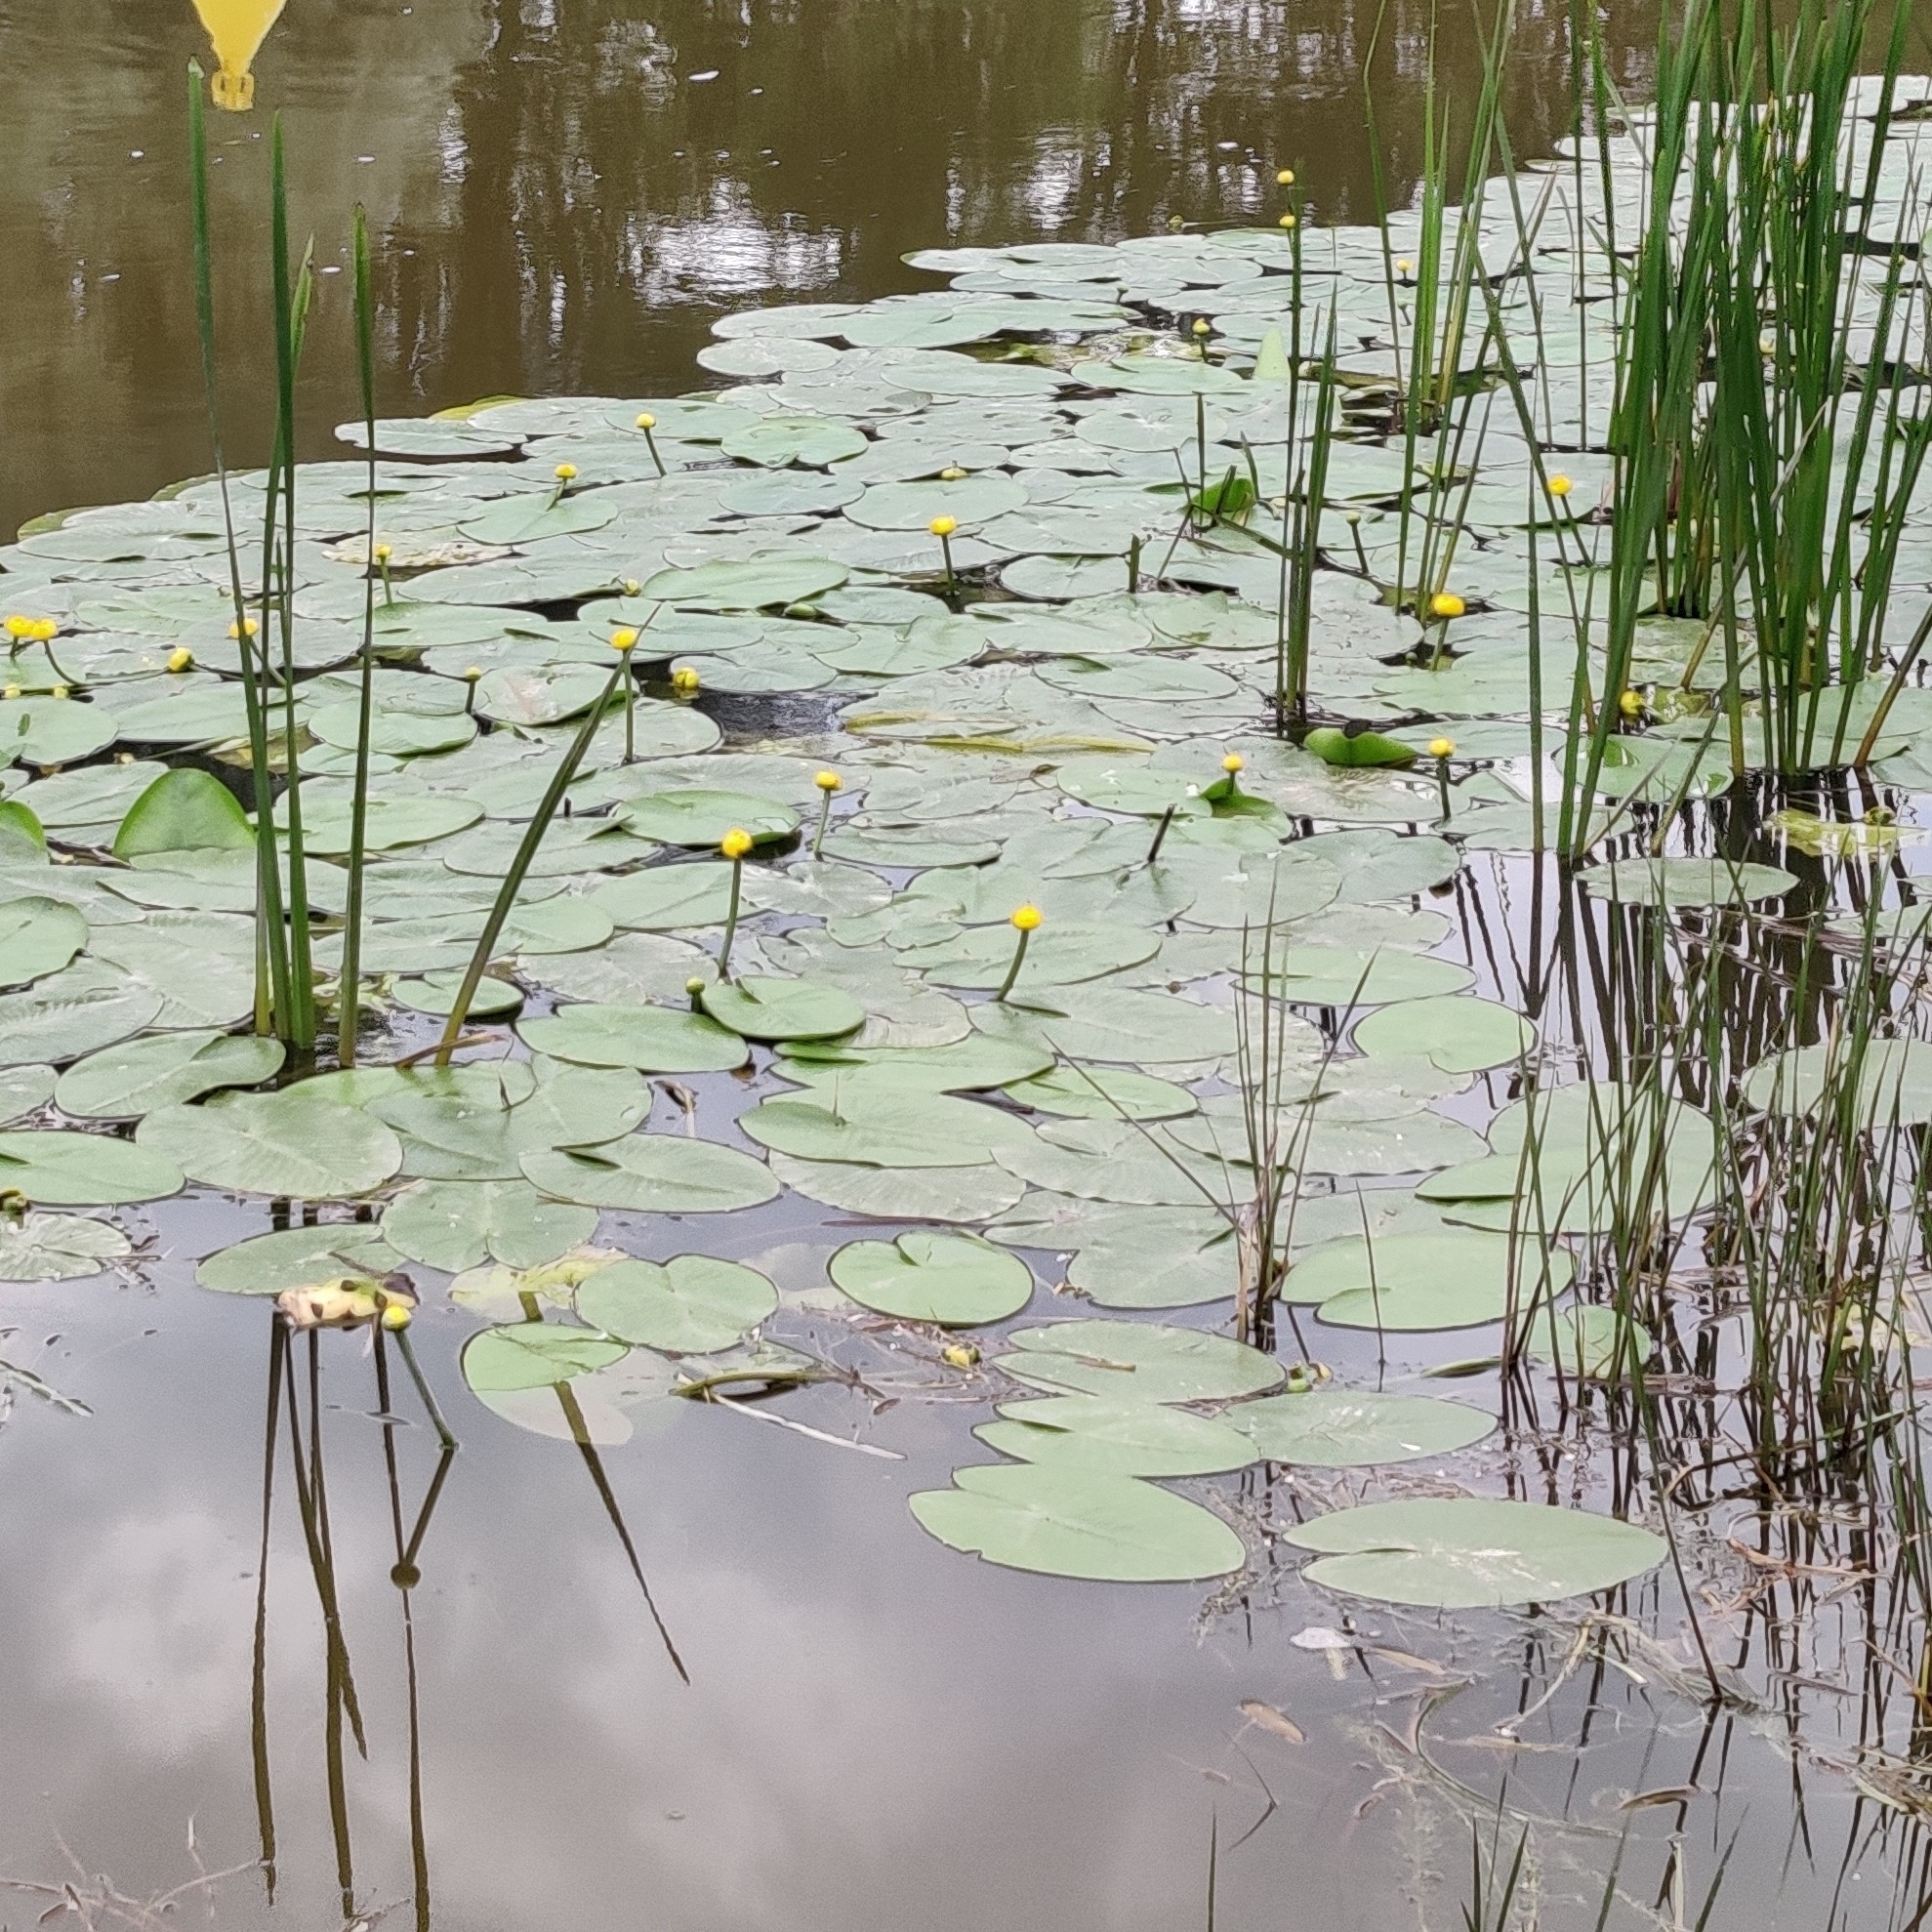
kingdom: Plantae
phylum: Tracheophyta
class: Magnoliopsida
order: Nymphaeales
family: Nymphaeaceae
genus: Nuphar
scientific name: Nuphar lutea
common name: Yellow water-lily
